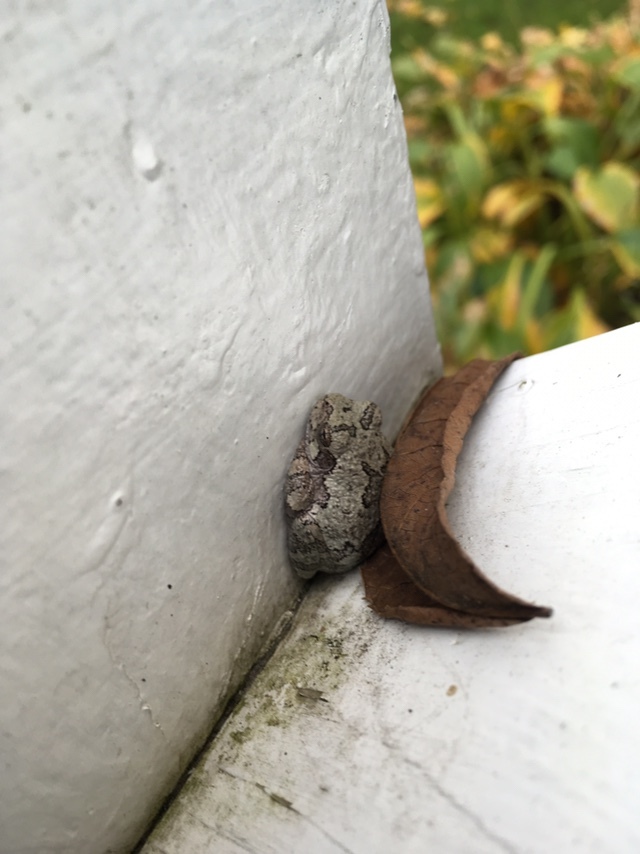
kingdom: Animalia
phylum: Chordata
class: Amphibia
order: Anura
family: Hylidae
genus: Hyla
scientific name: Hyla
